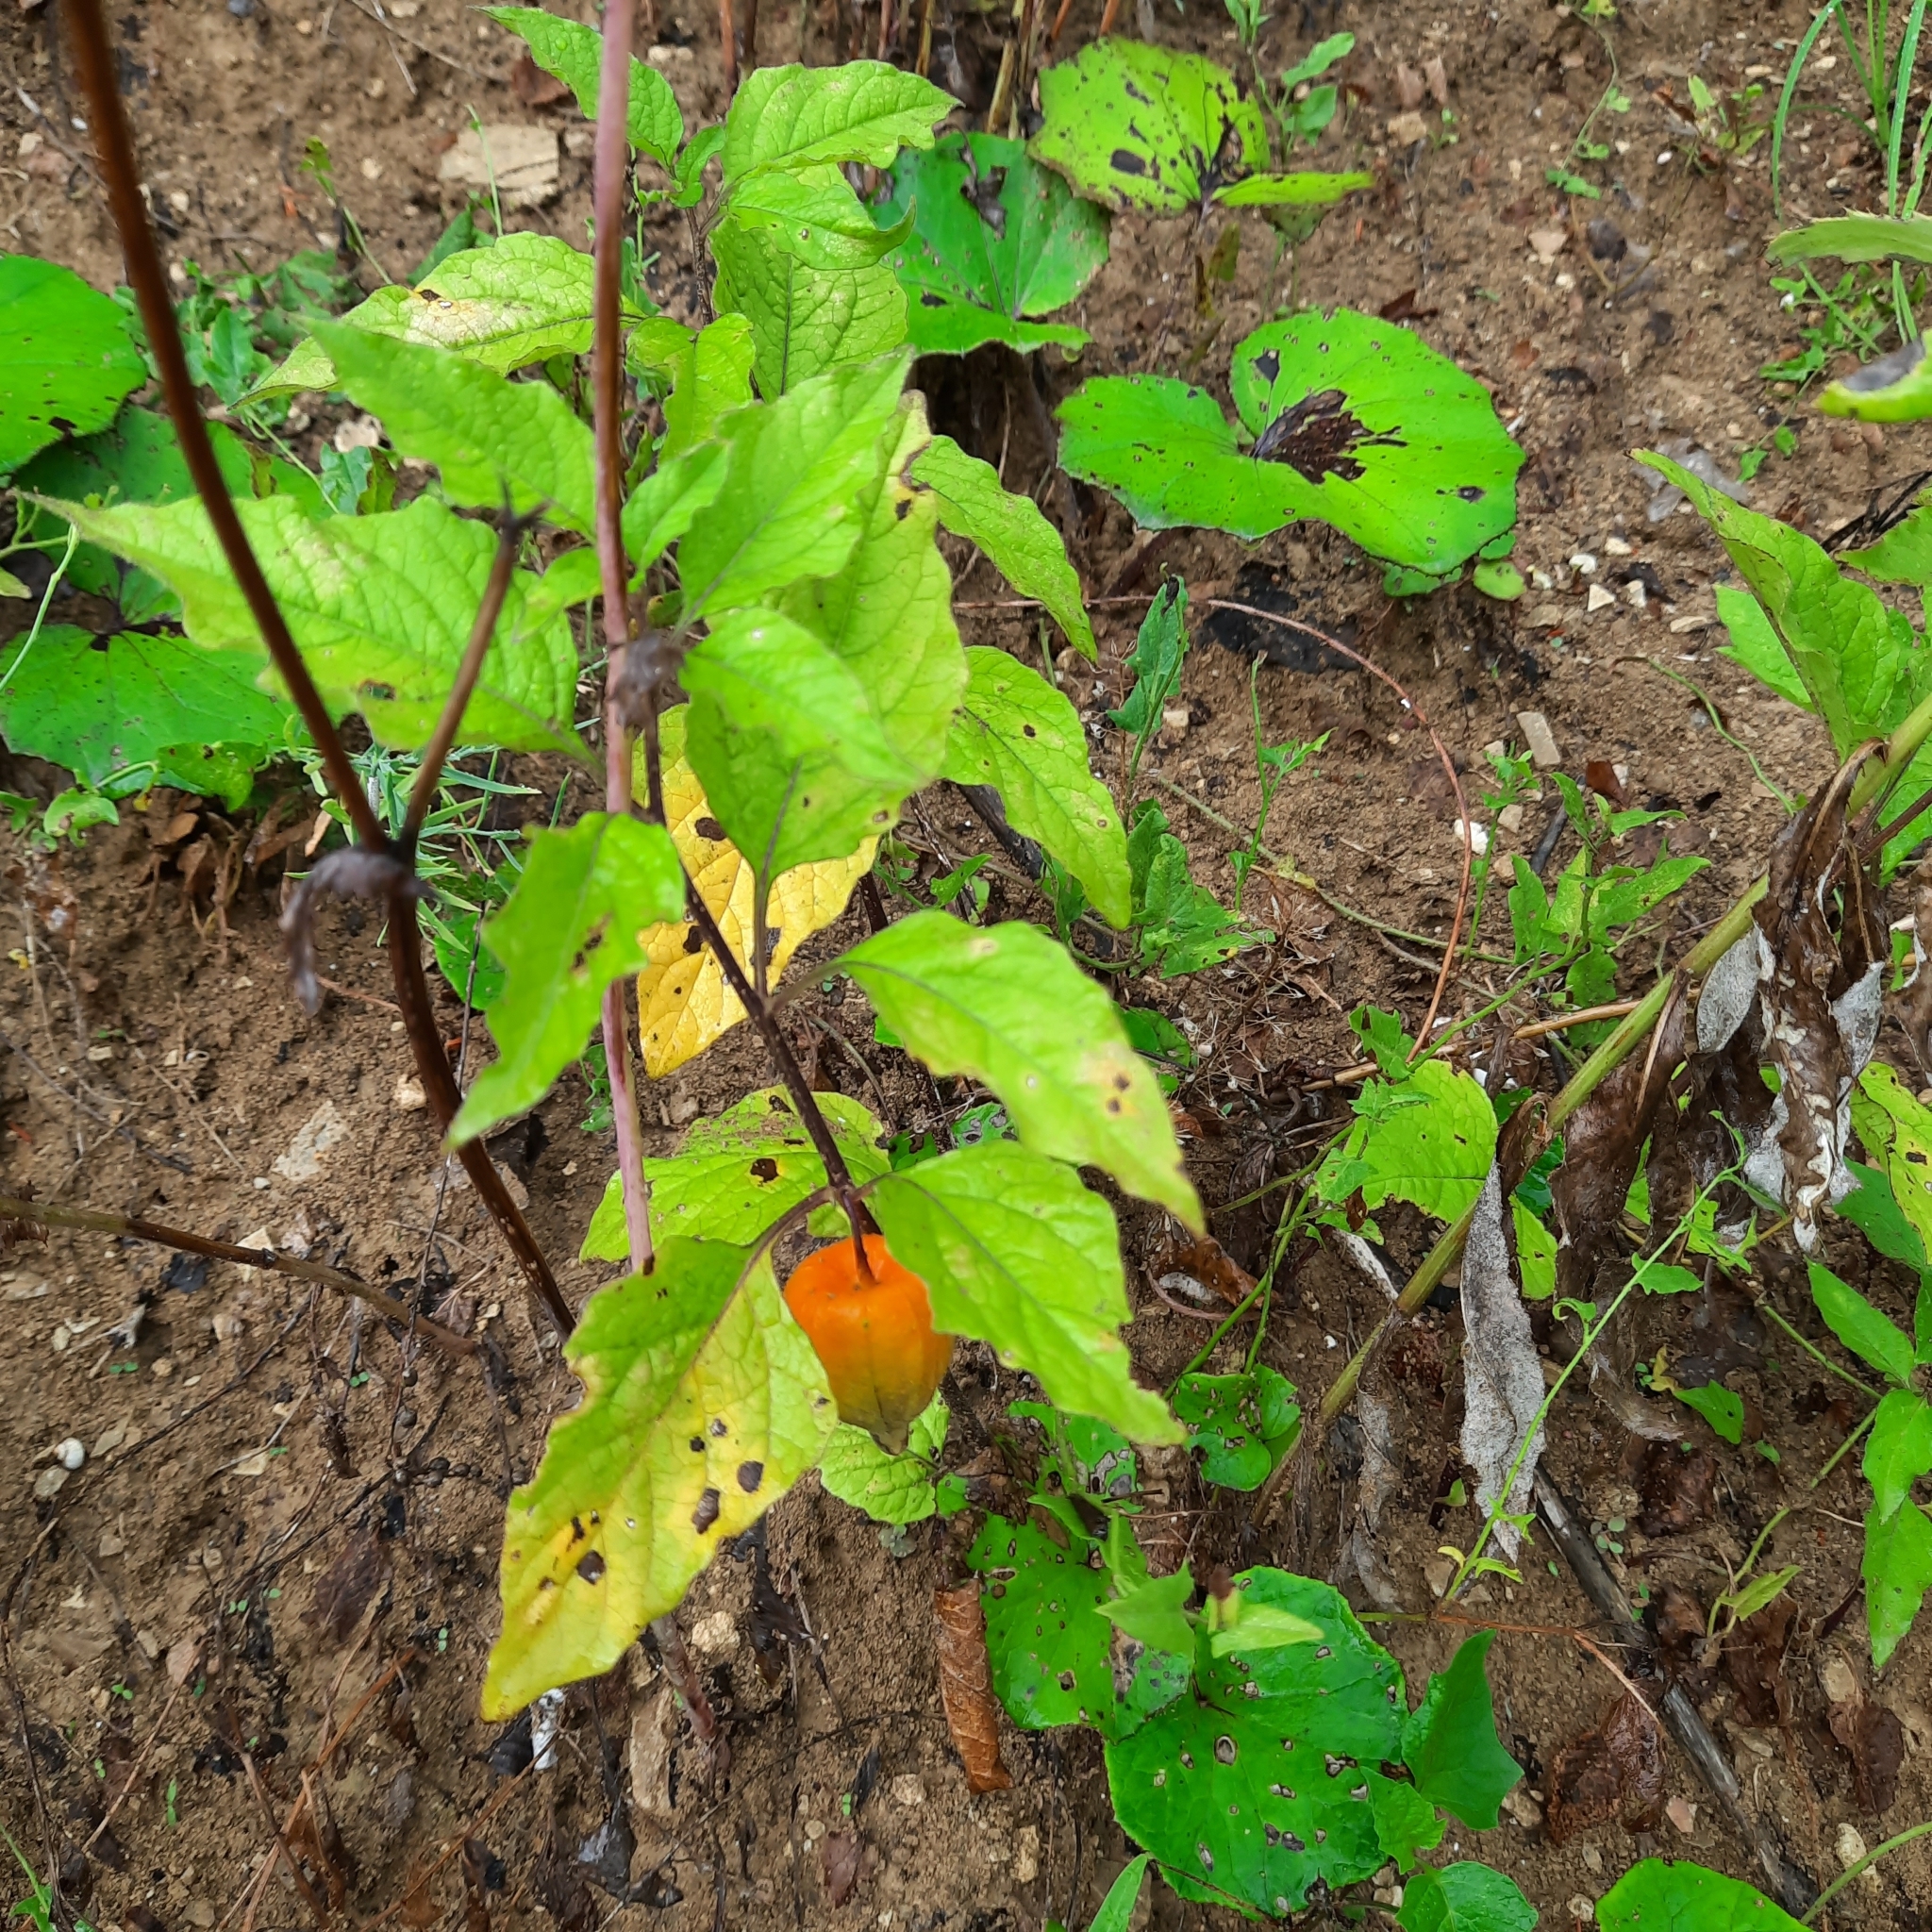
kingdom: Plantae
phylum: Tracheophyta
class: Magnoliopsida
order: Solanales
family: Solanaceae
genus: Alkekengi
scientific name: Alkekengi officinarum
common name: Japanese-lantern
